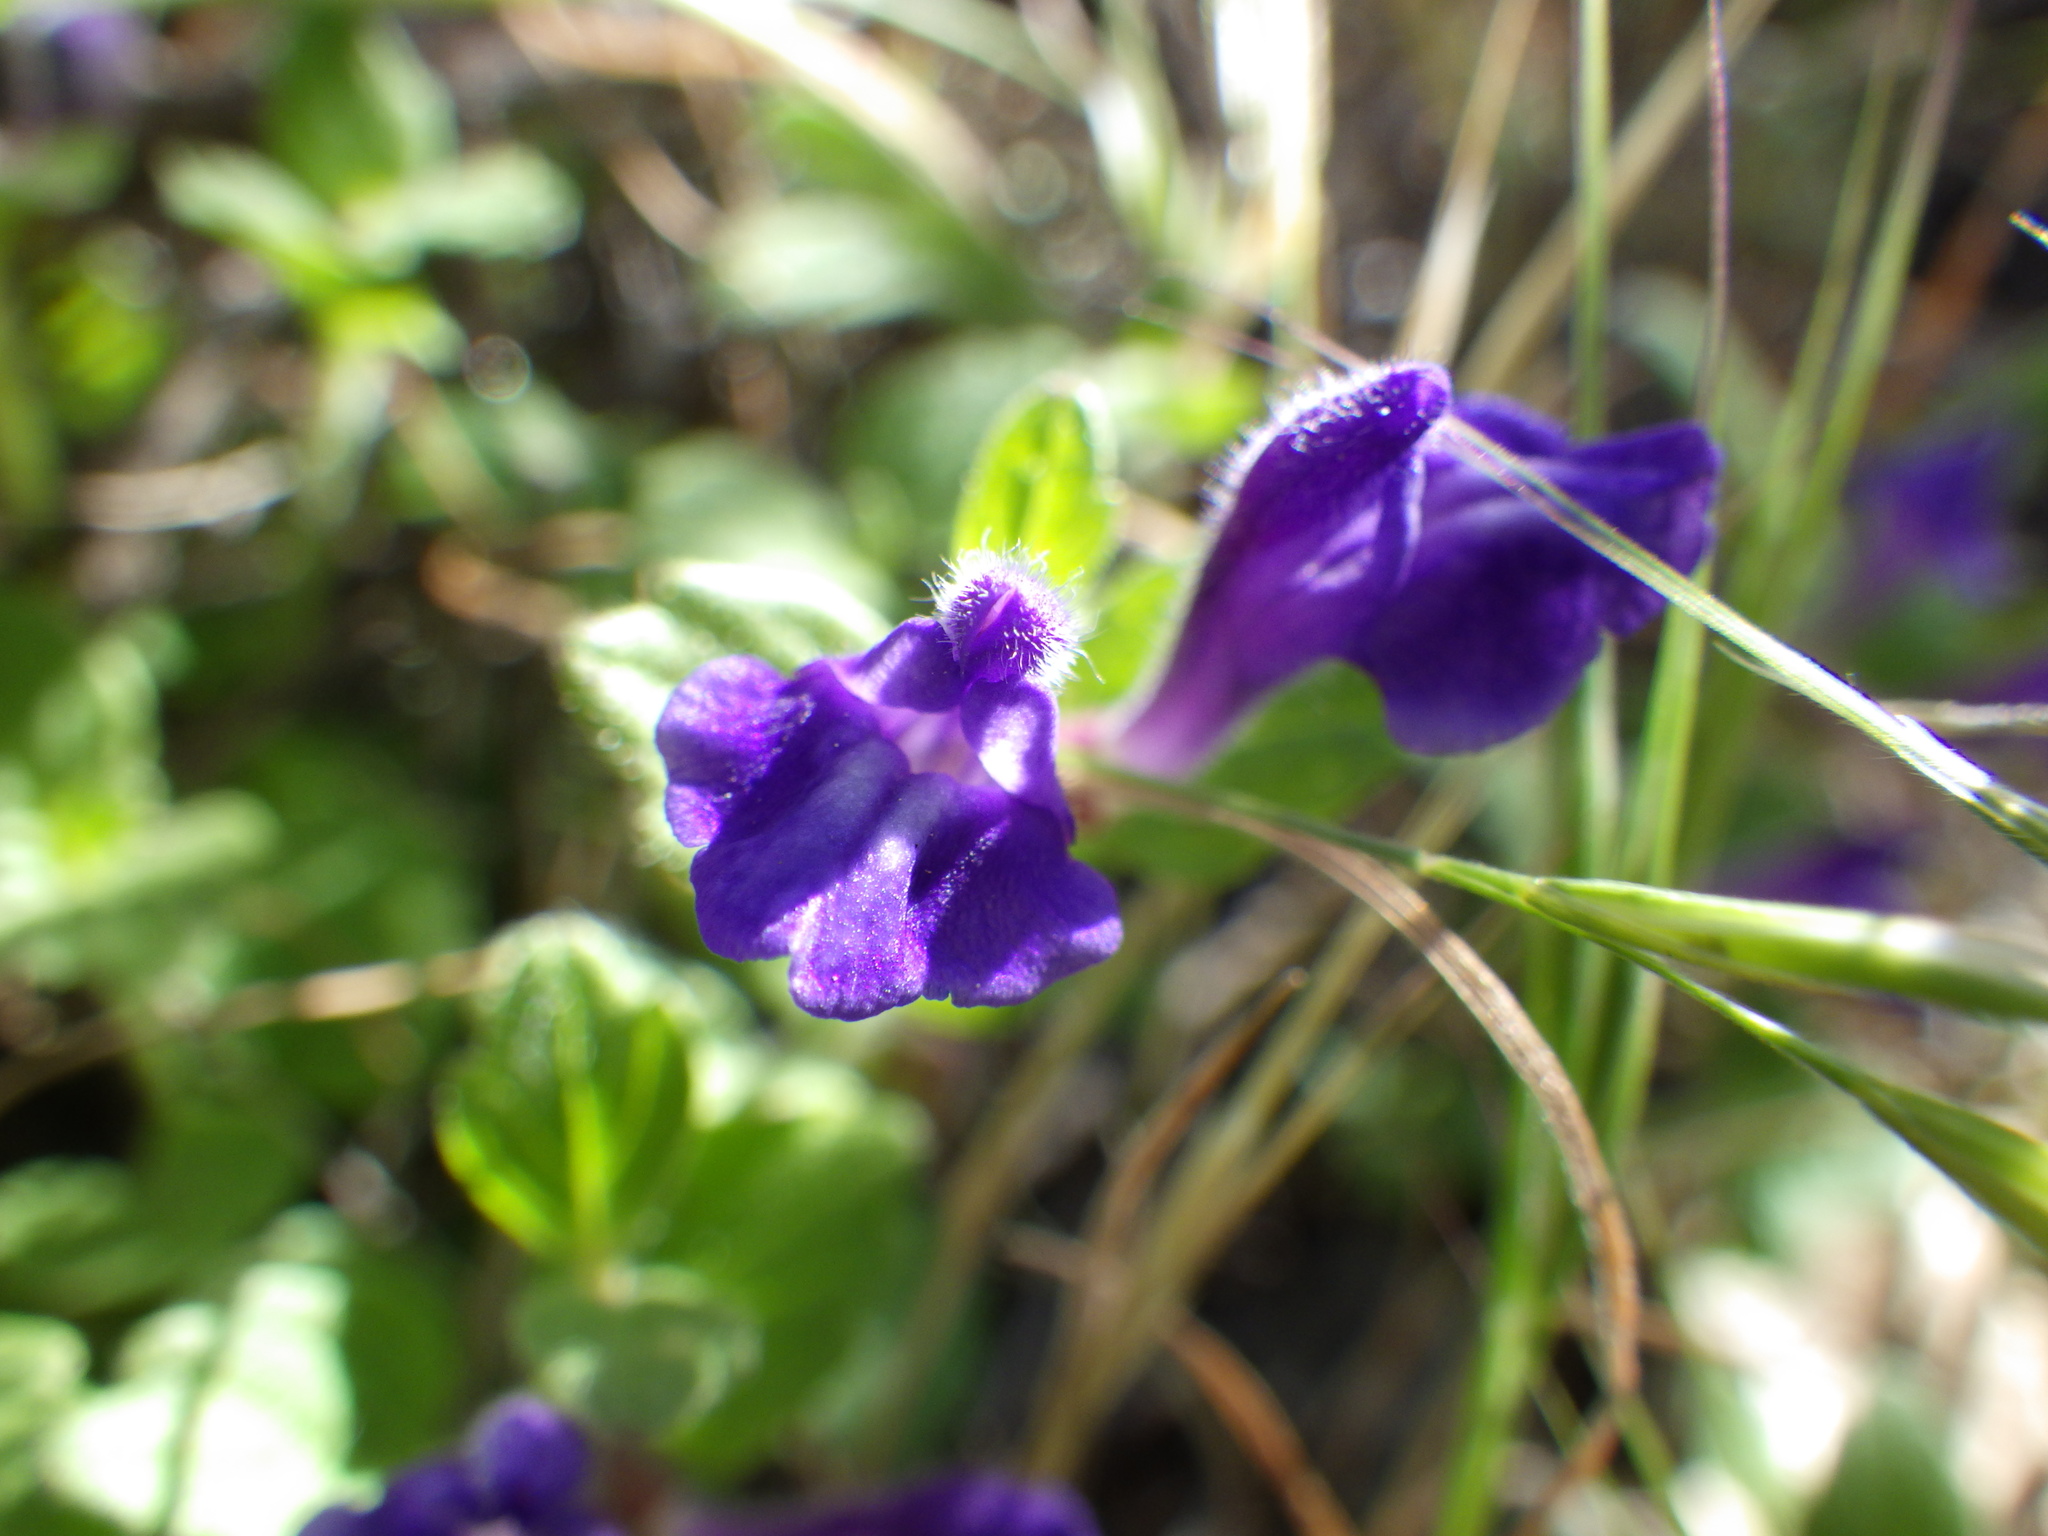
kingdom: Plantae
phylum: Tracheophyta
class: Magnoliopsida
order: Lamiales
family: Lamiaceae
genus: Scutellaria
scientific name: Scutellaria tuberosa
